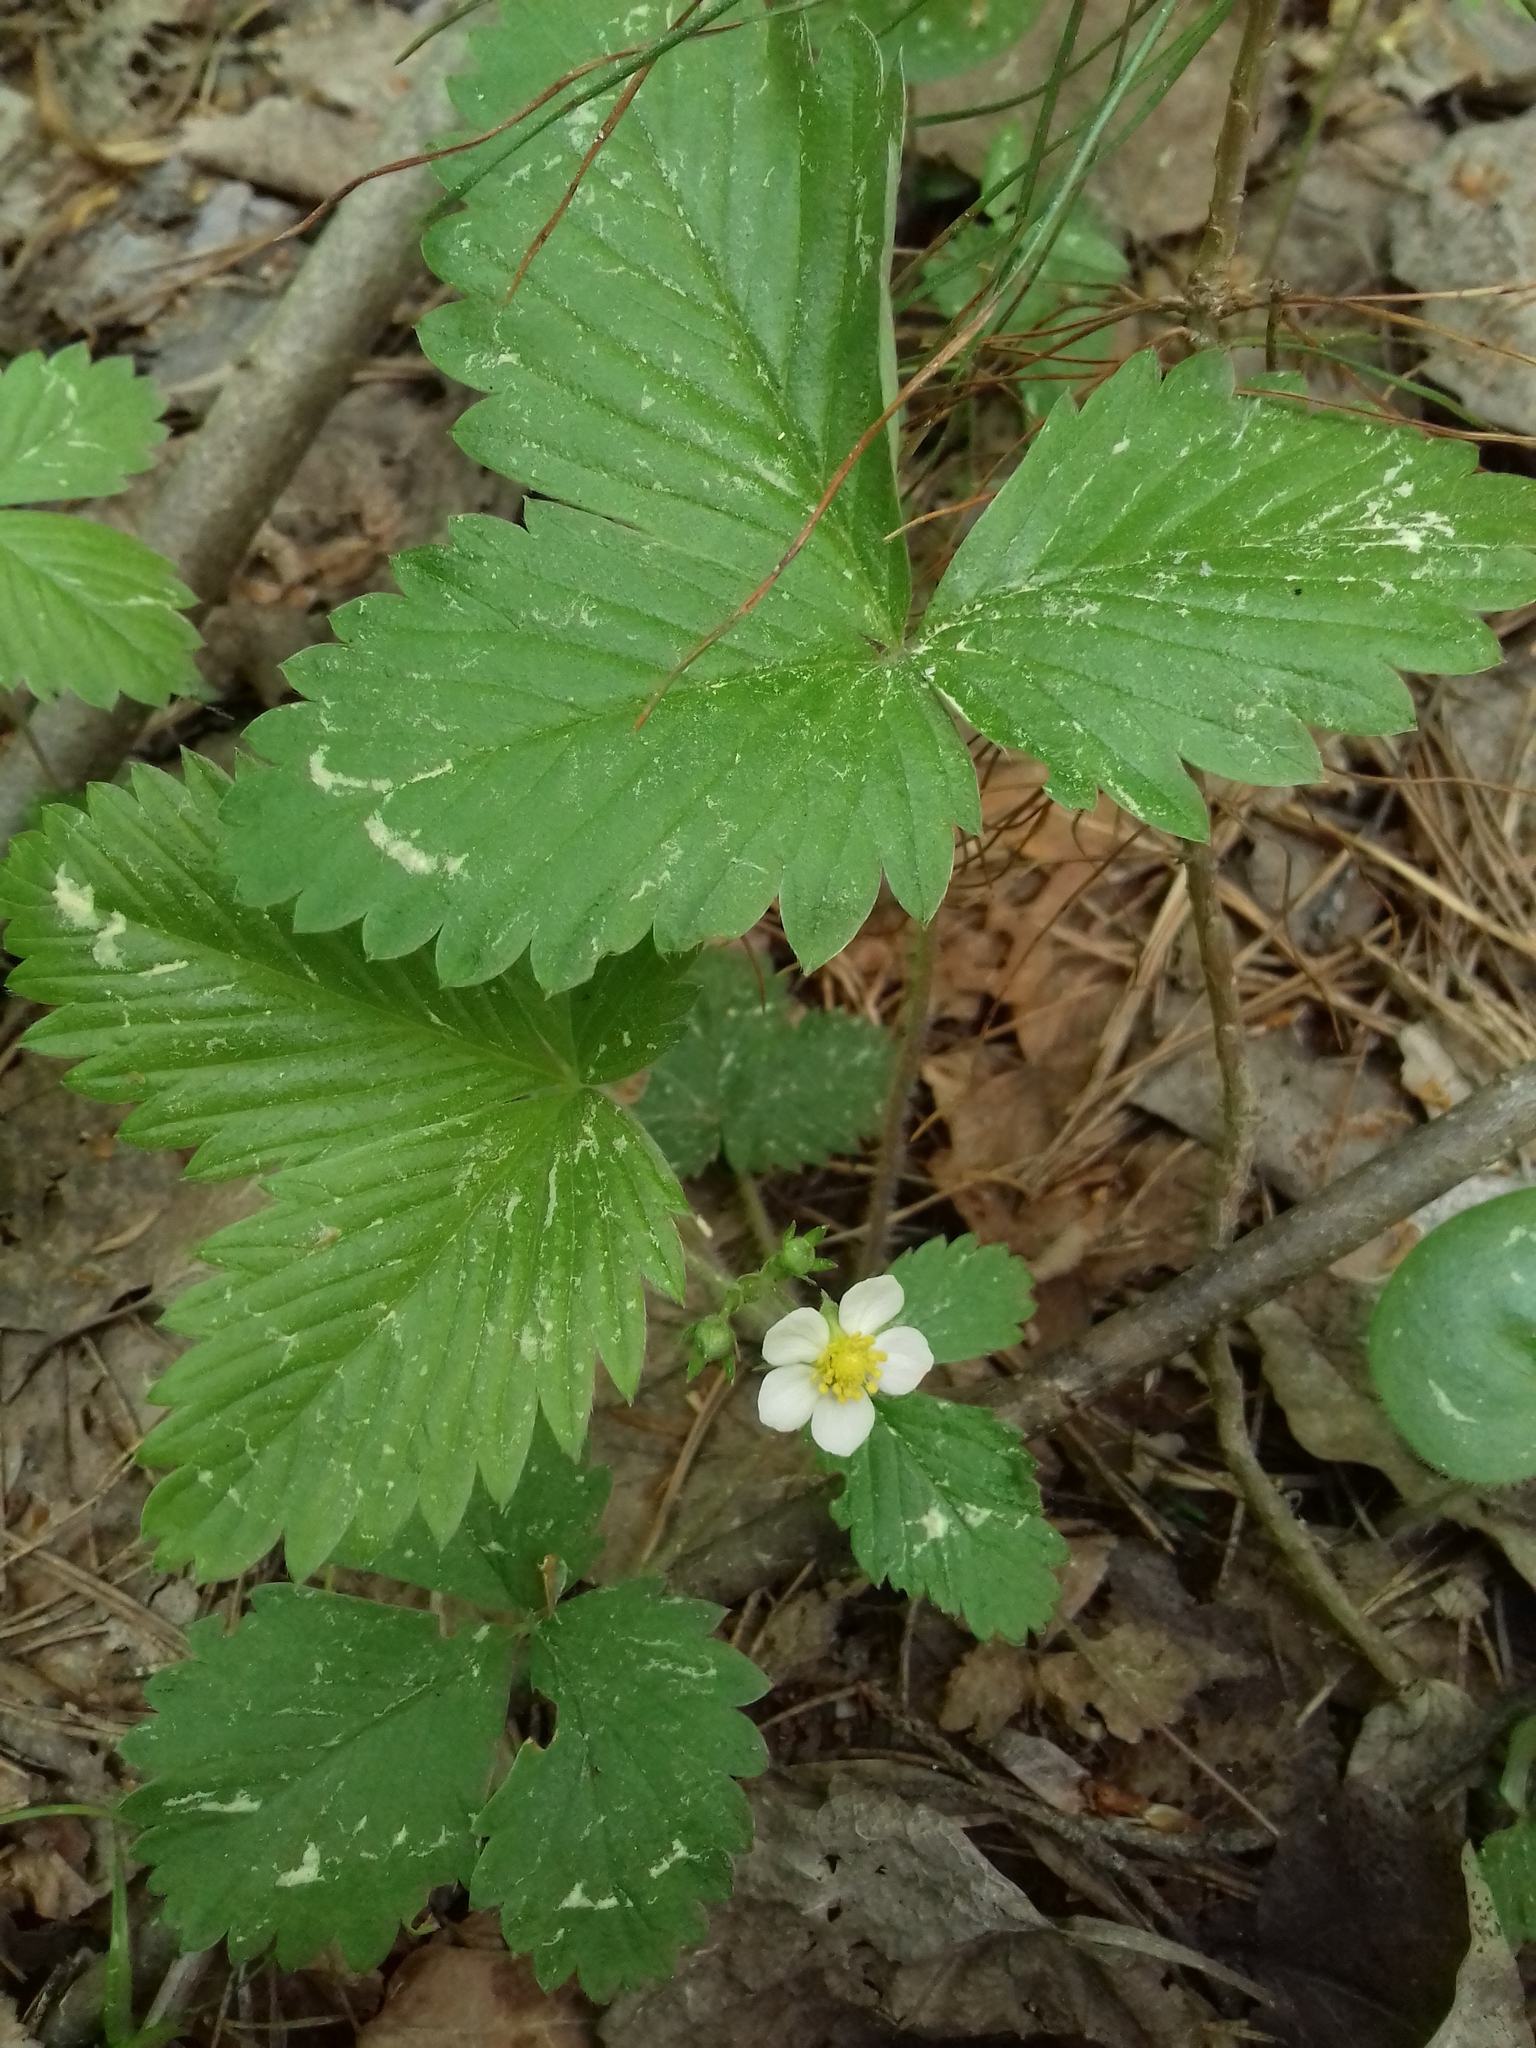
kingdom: Plantae
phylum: Tracheophyta
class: Magnoliopsida
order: Rosales
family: Rosaceae
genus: Fragaria
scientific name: Fragaria vesca
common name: Wild strawberry
